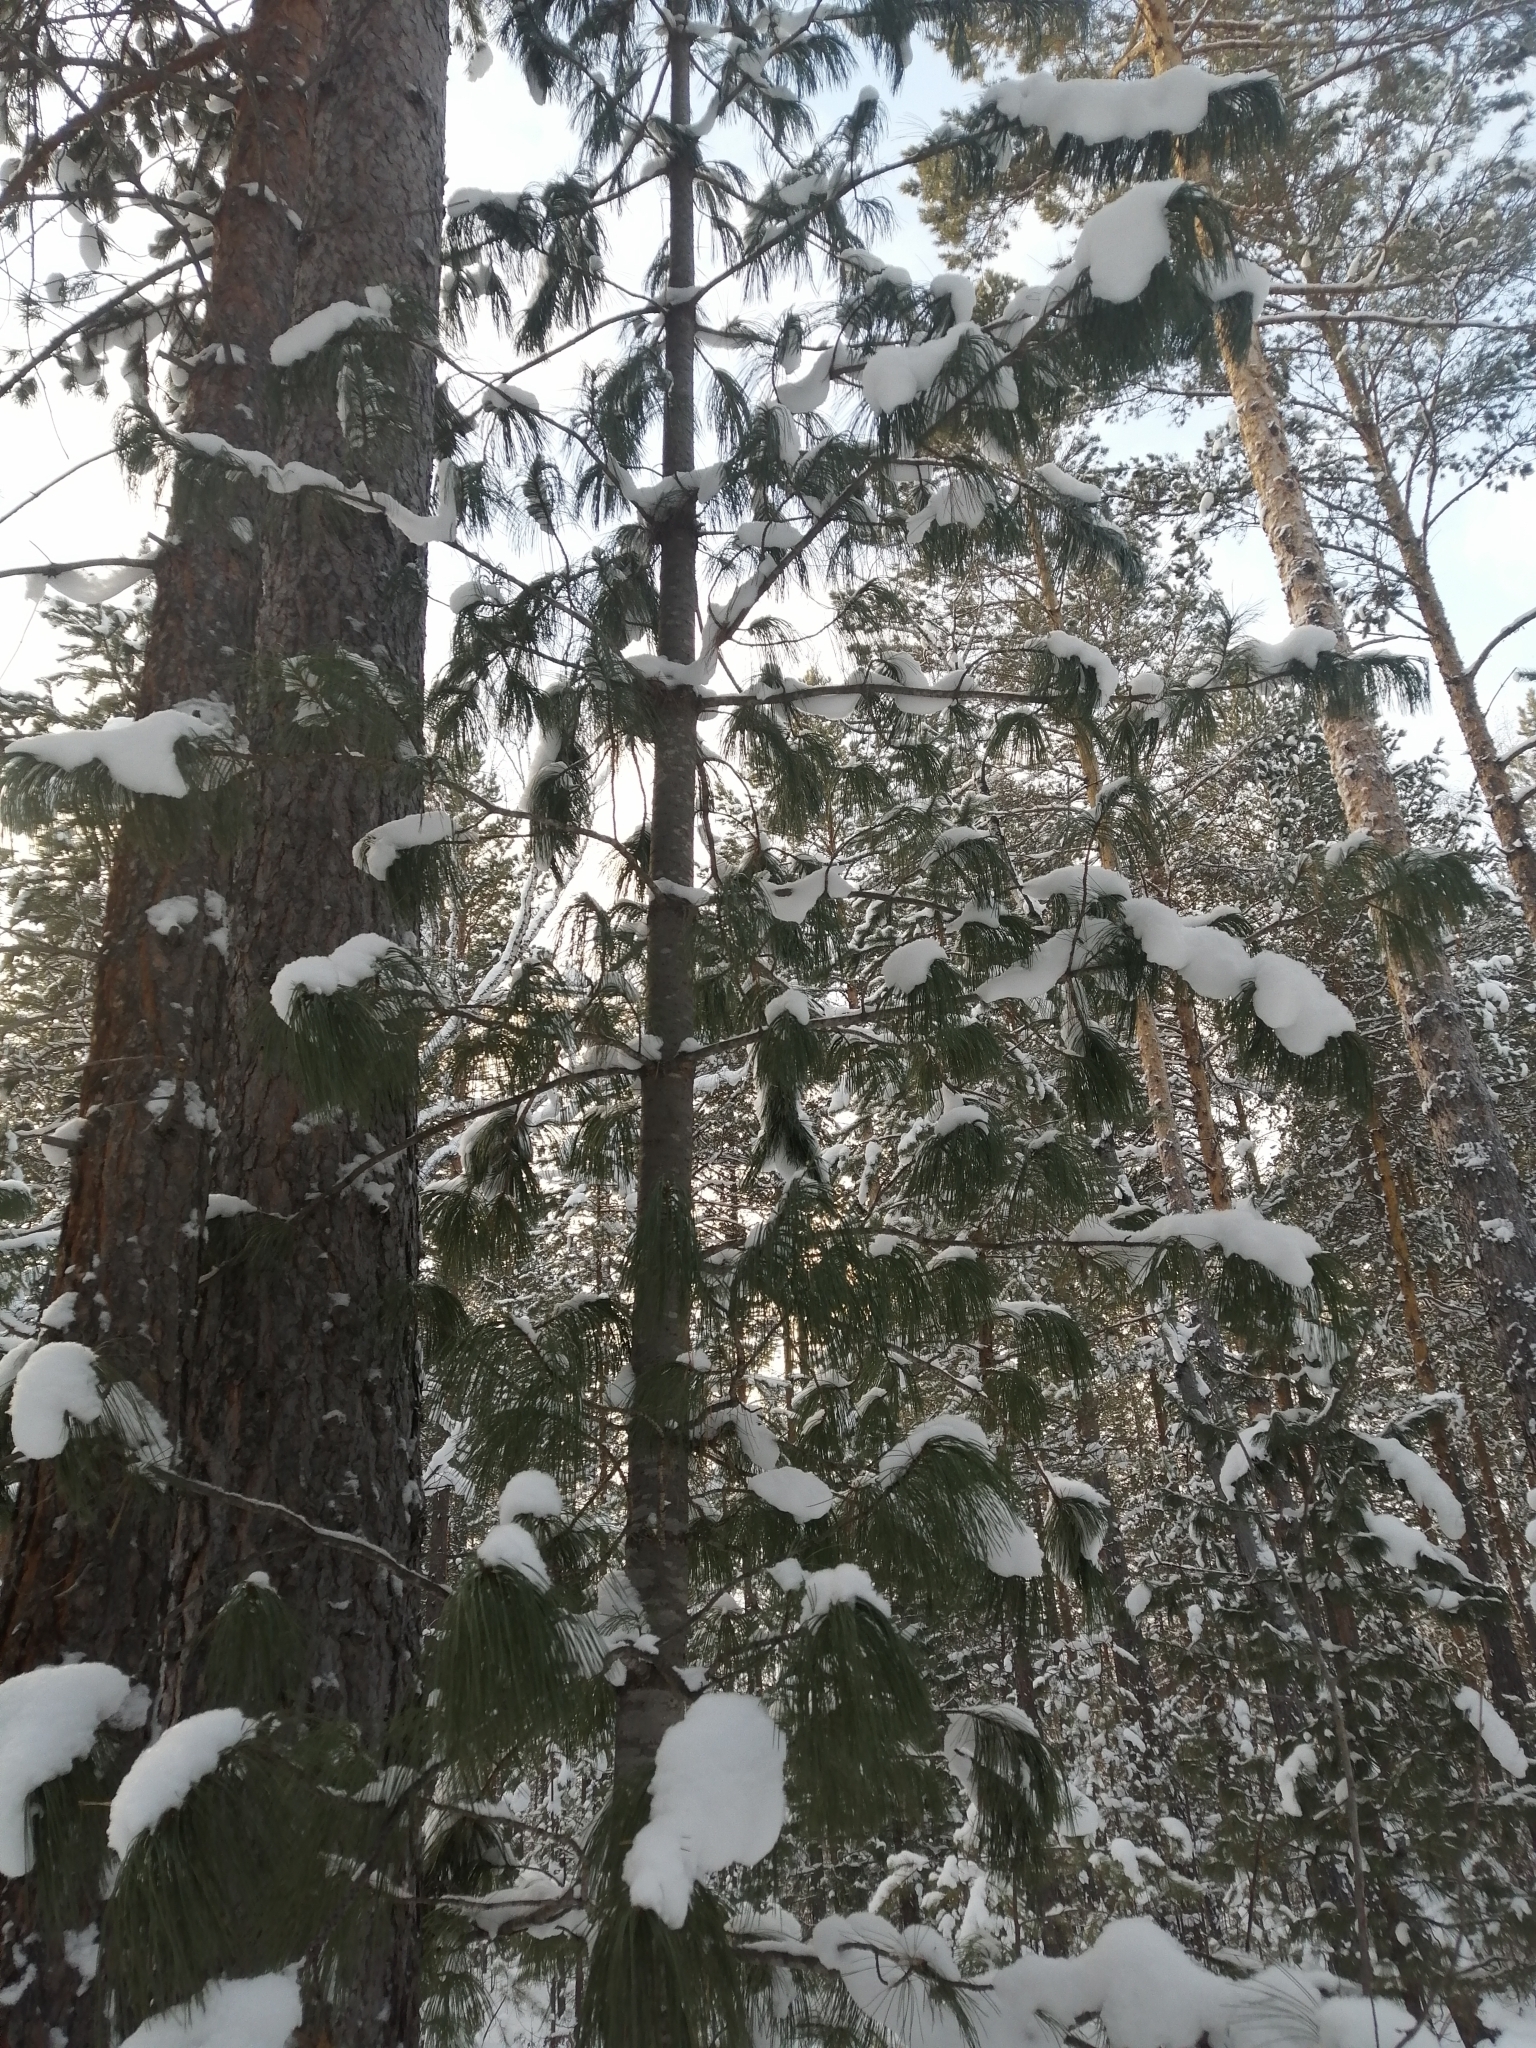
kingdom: Plantae
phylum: Tracheophyta
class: Pinopsida
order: Pinales
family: Pinaceae
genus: Pinus
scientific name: Pinus sibirica
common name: Siberian pine
